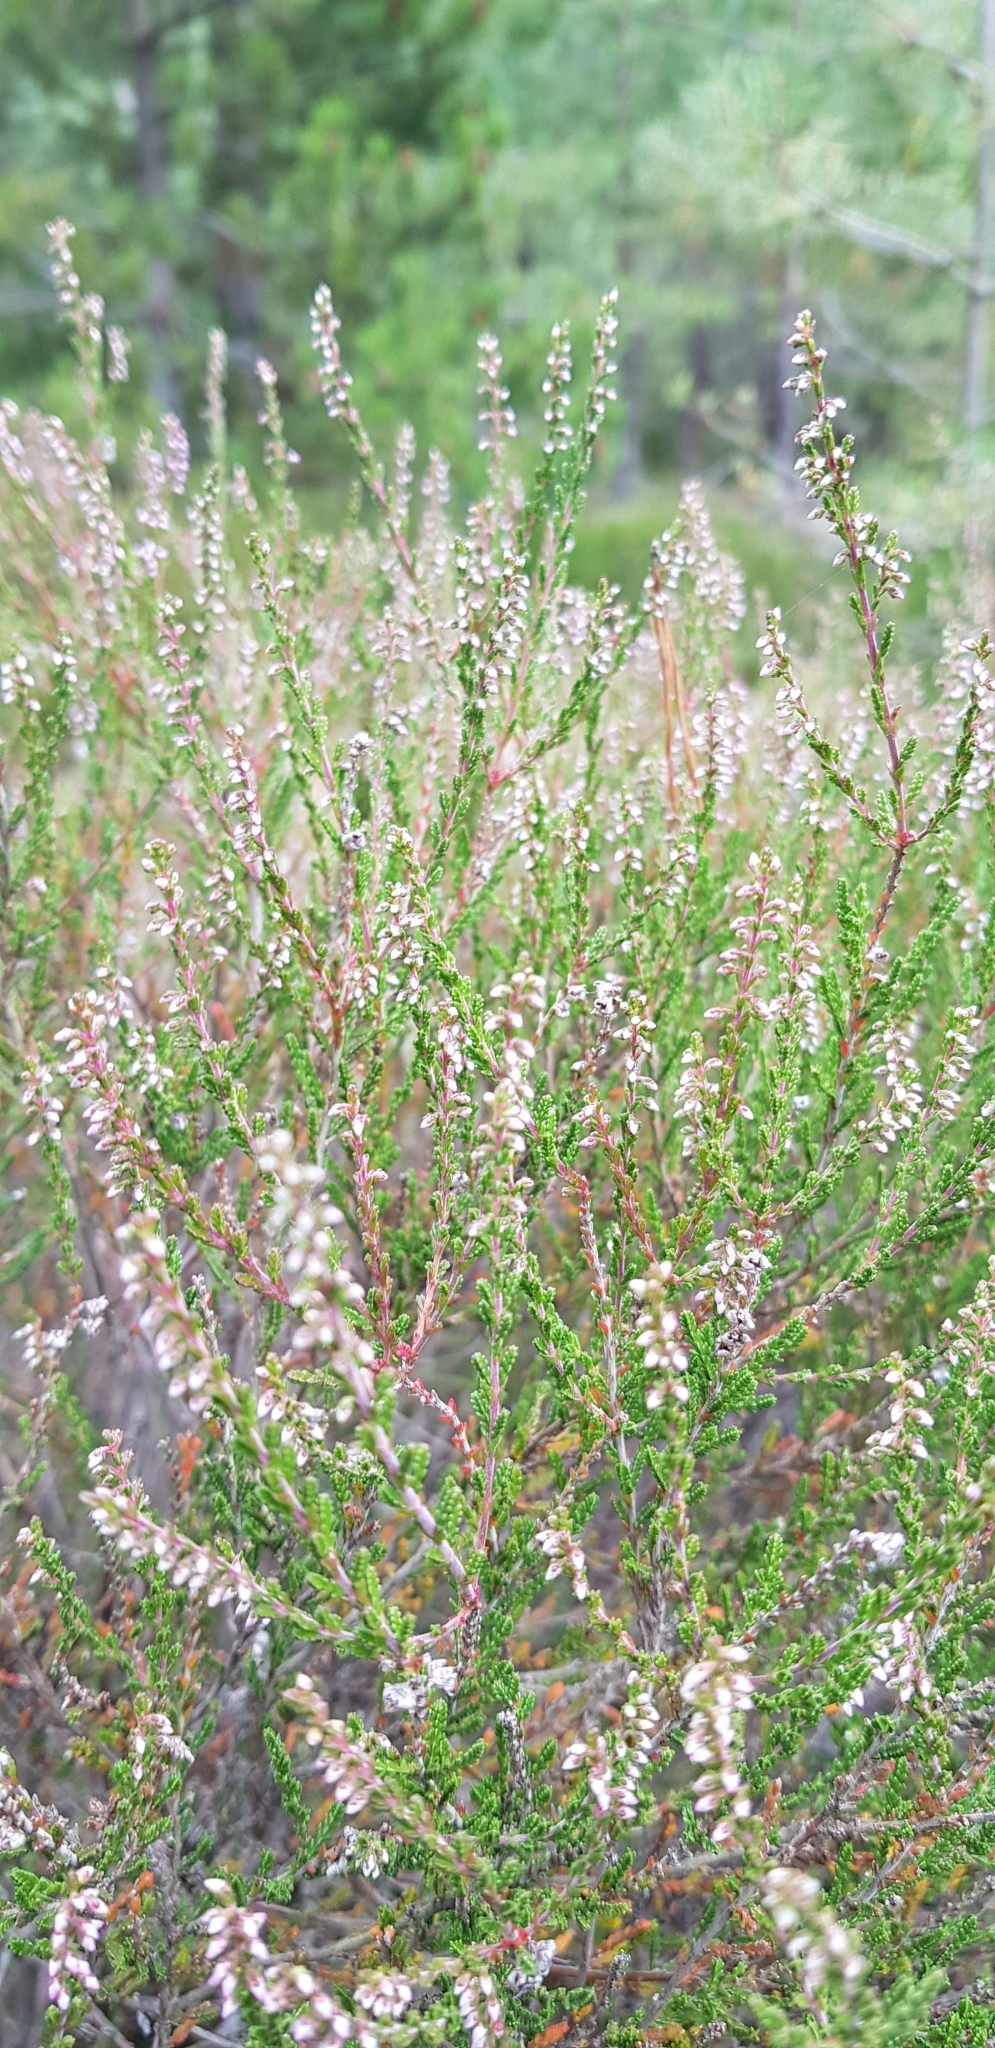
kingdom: Plantae
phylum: Tracheophyta
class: Magnoliopsida
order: Ericales
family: Ericaceae
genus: Calluna
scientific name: Calluna vulgaris
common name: Heather
